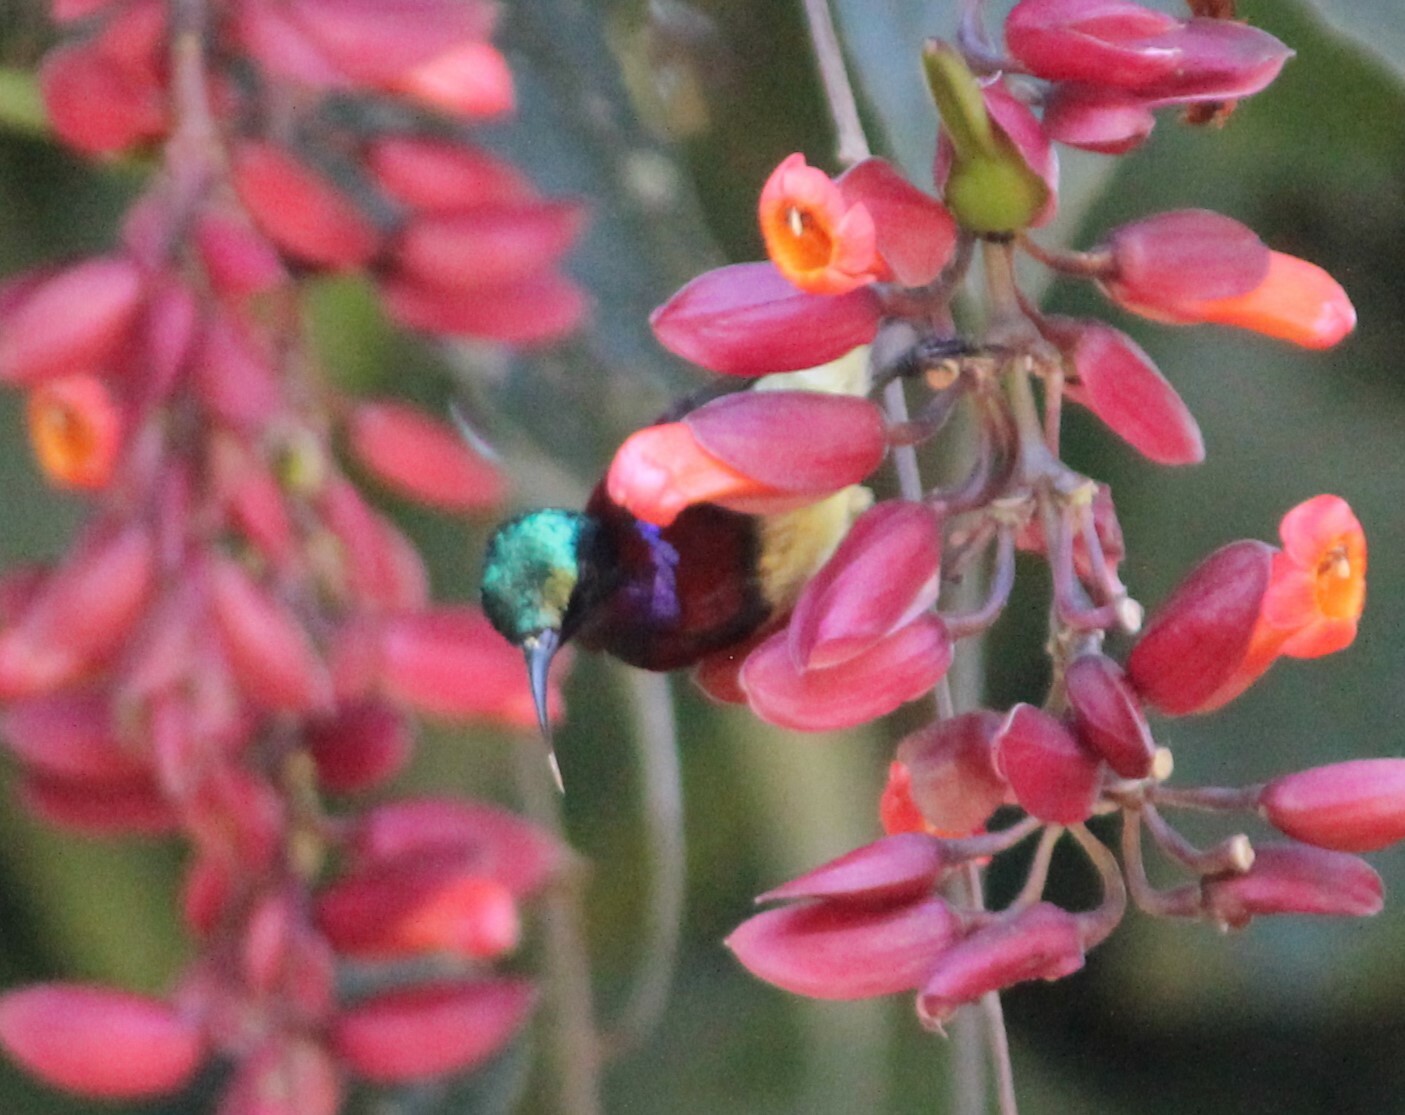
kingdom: Animalia
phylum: Chordata
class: Aves
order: Passeriformes
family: Nectariniidae
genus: Leptocoma
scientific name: Leptocoma minima
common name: Crimson-backed sunbird
